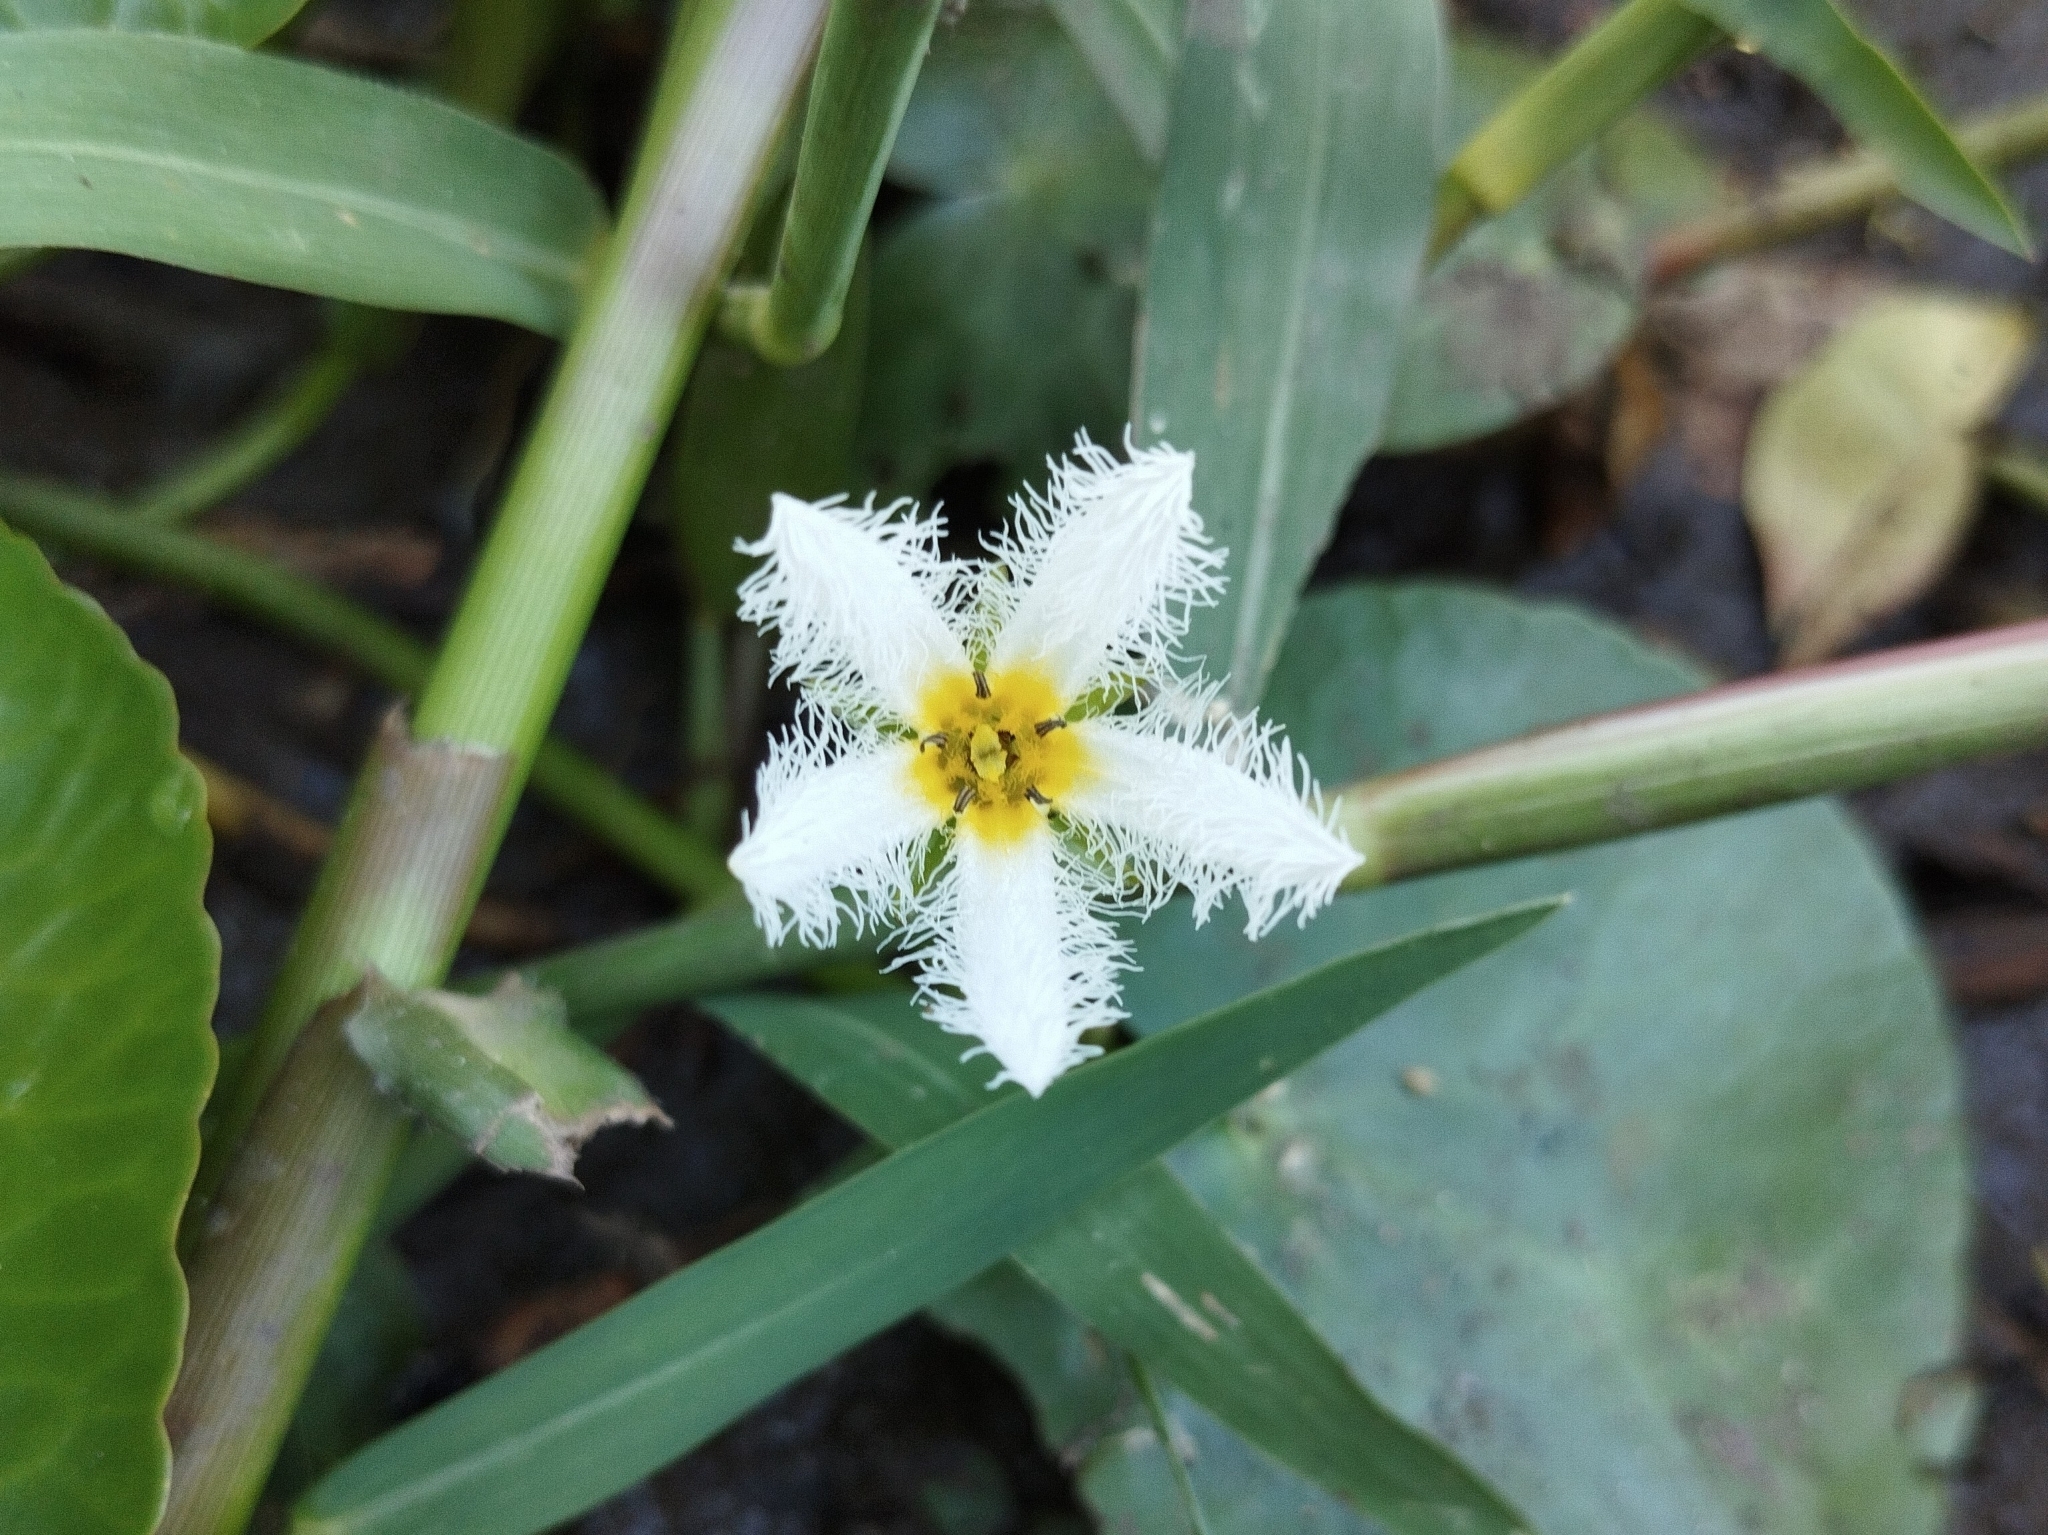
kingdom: Plantae
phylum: Tracheophyta
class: Magnoliopsida
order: Asterales
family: Menyanthaceae
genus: Nymphoides
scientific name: Nymphoides humboldtiana
